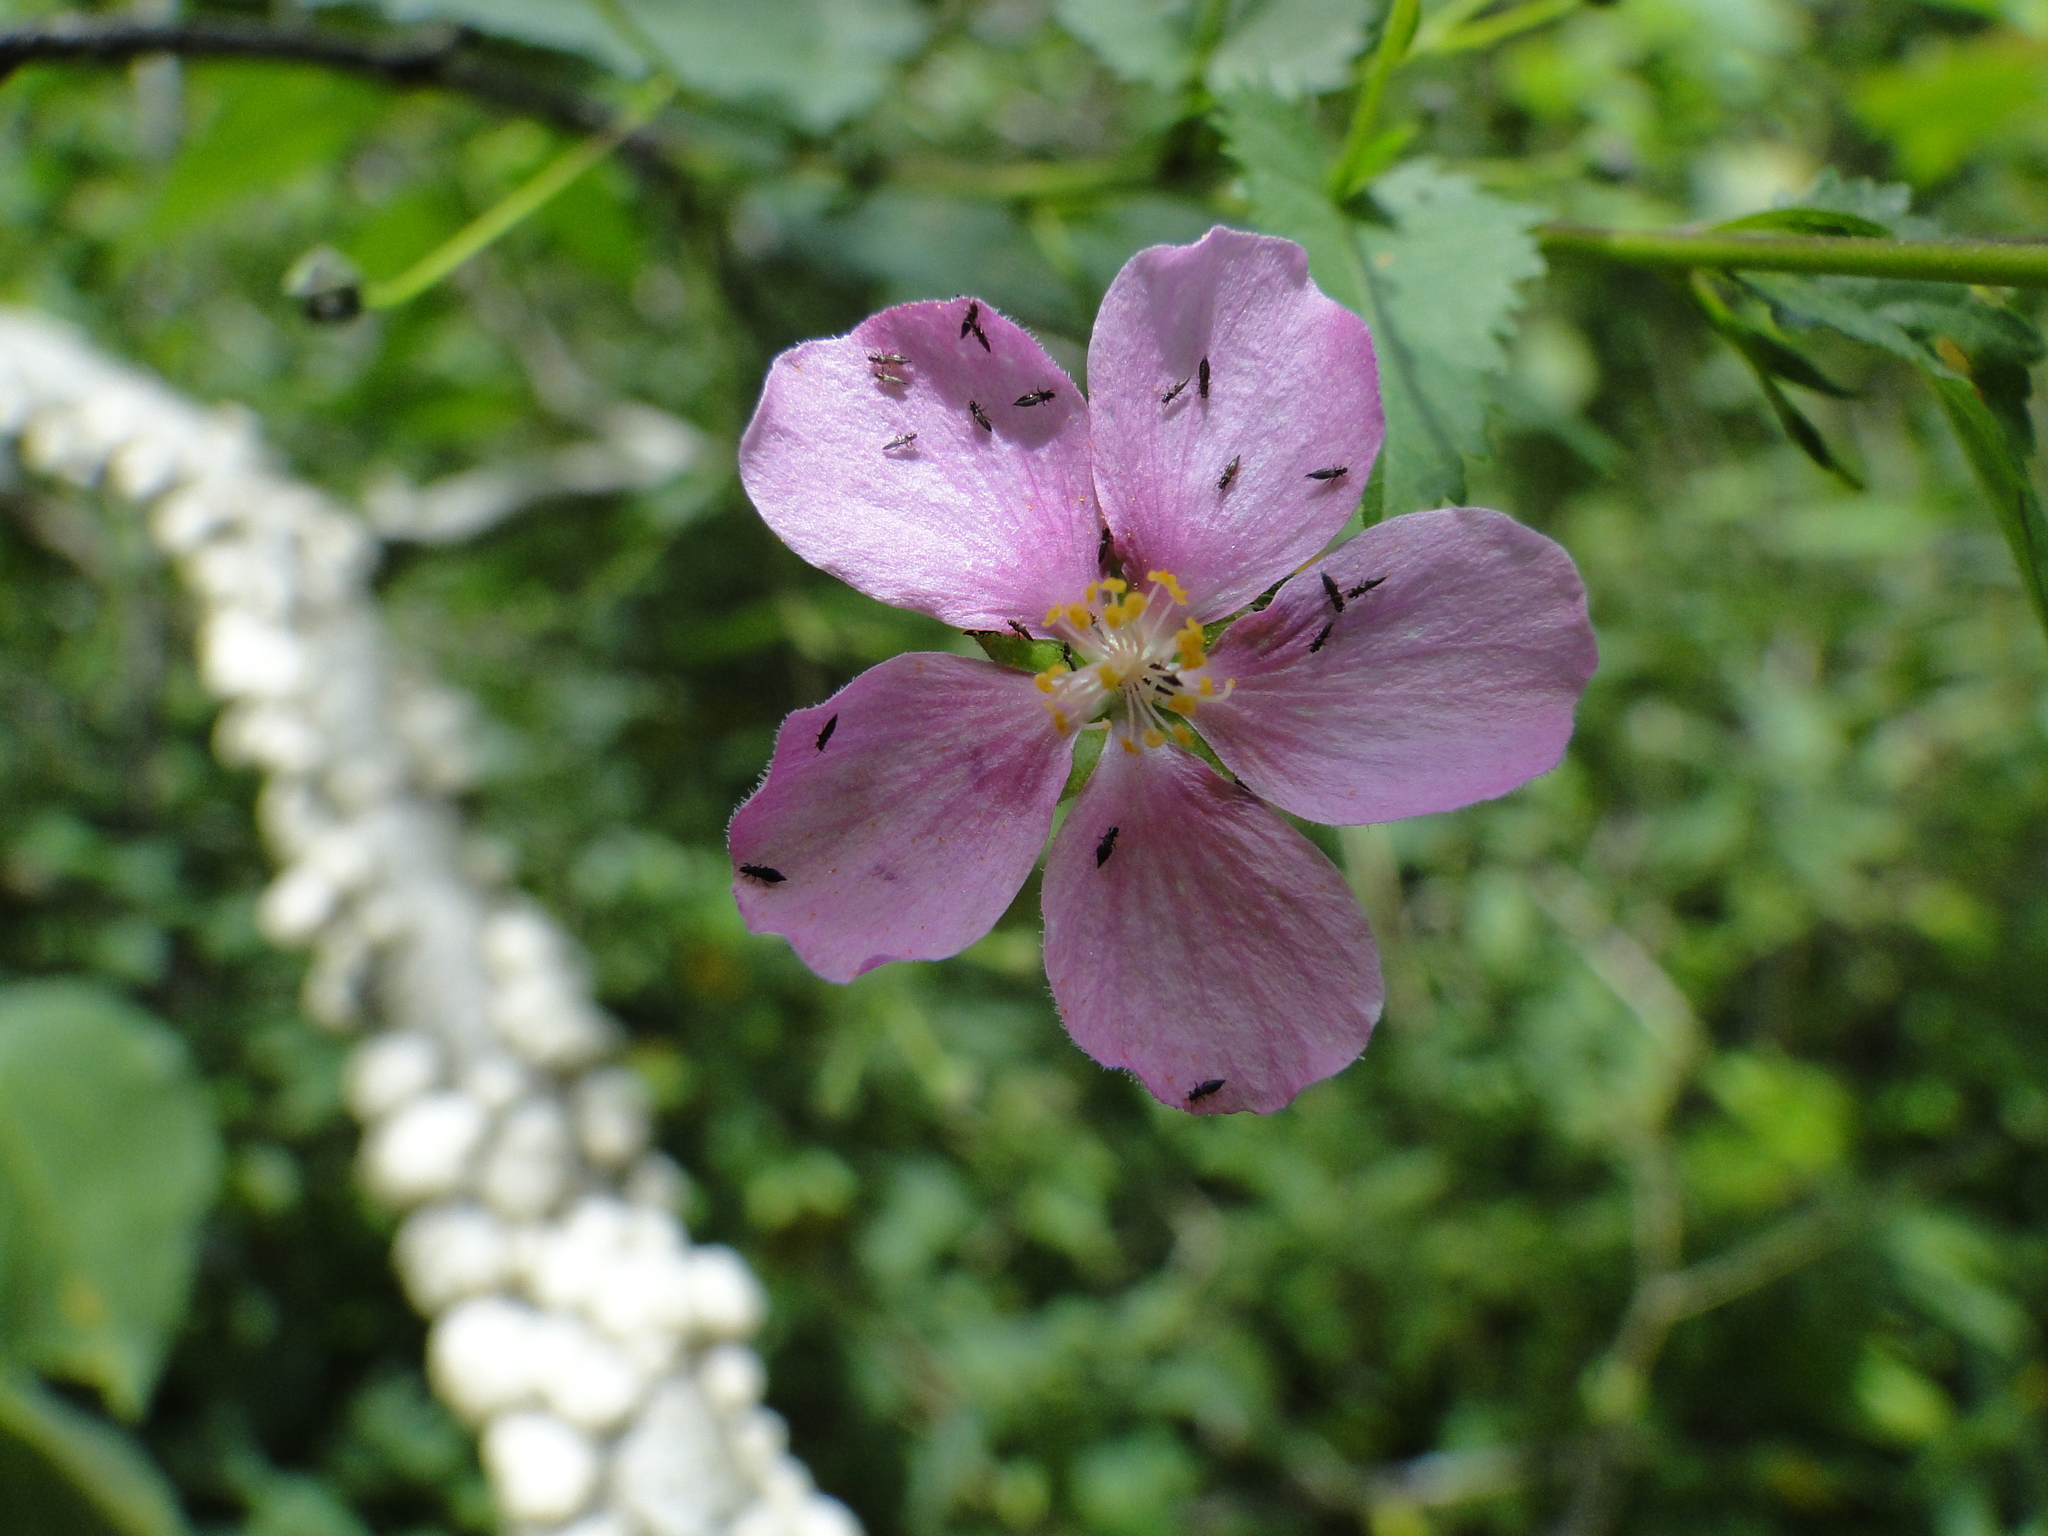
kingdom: Plantae
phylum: Tracheophyta
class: Magnoliopsida
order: Malvales
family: Malvaceae
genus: Sidastrum
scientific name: Sidastrum tehuacanum
